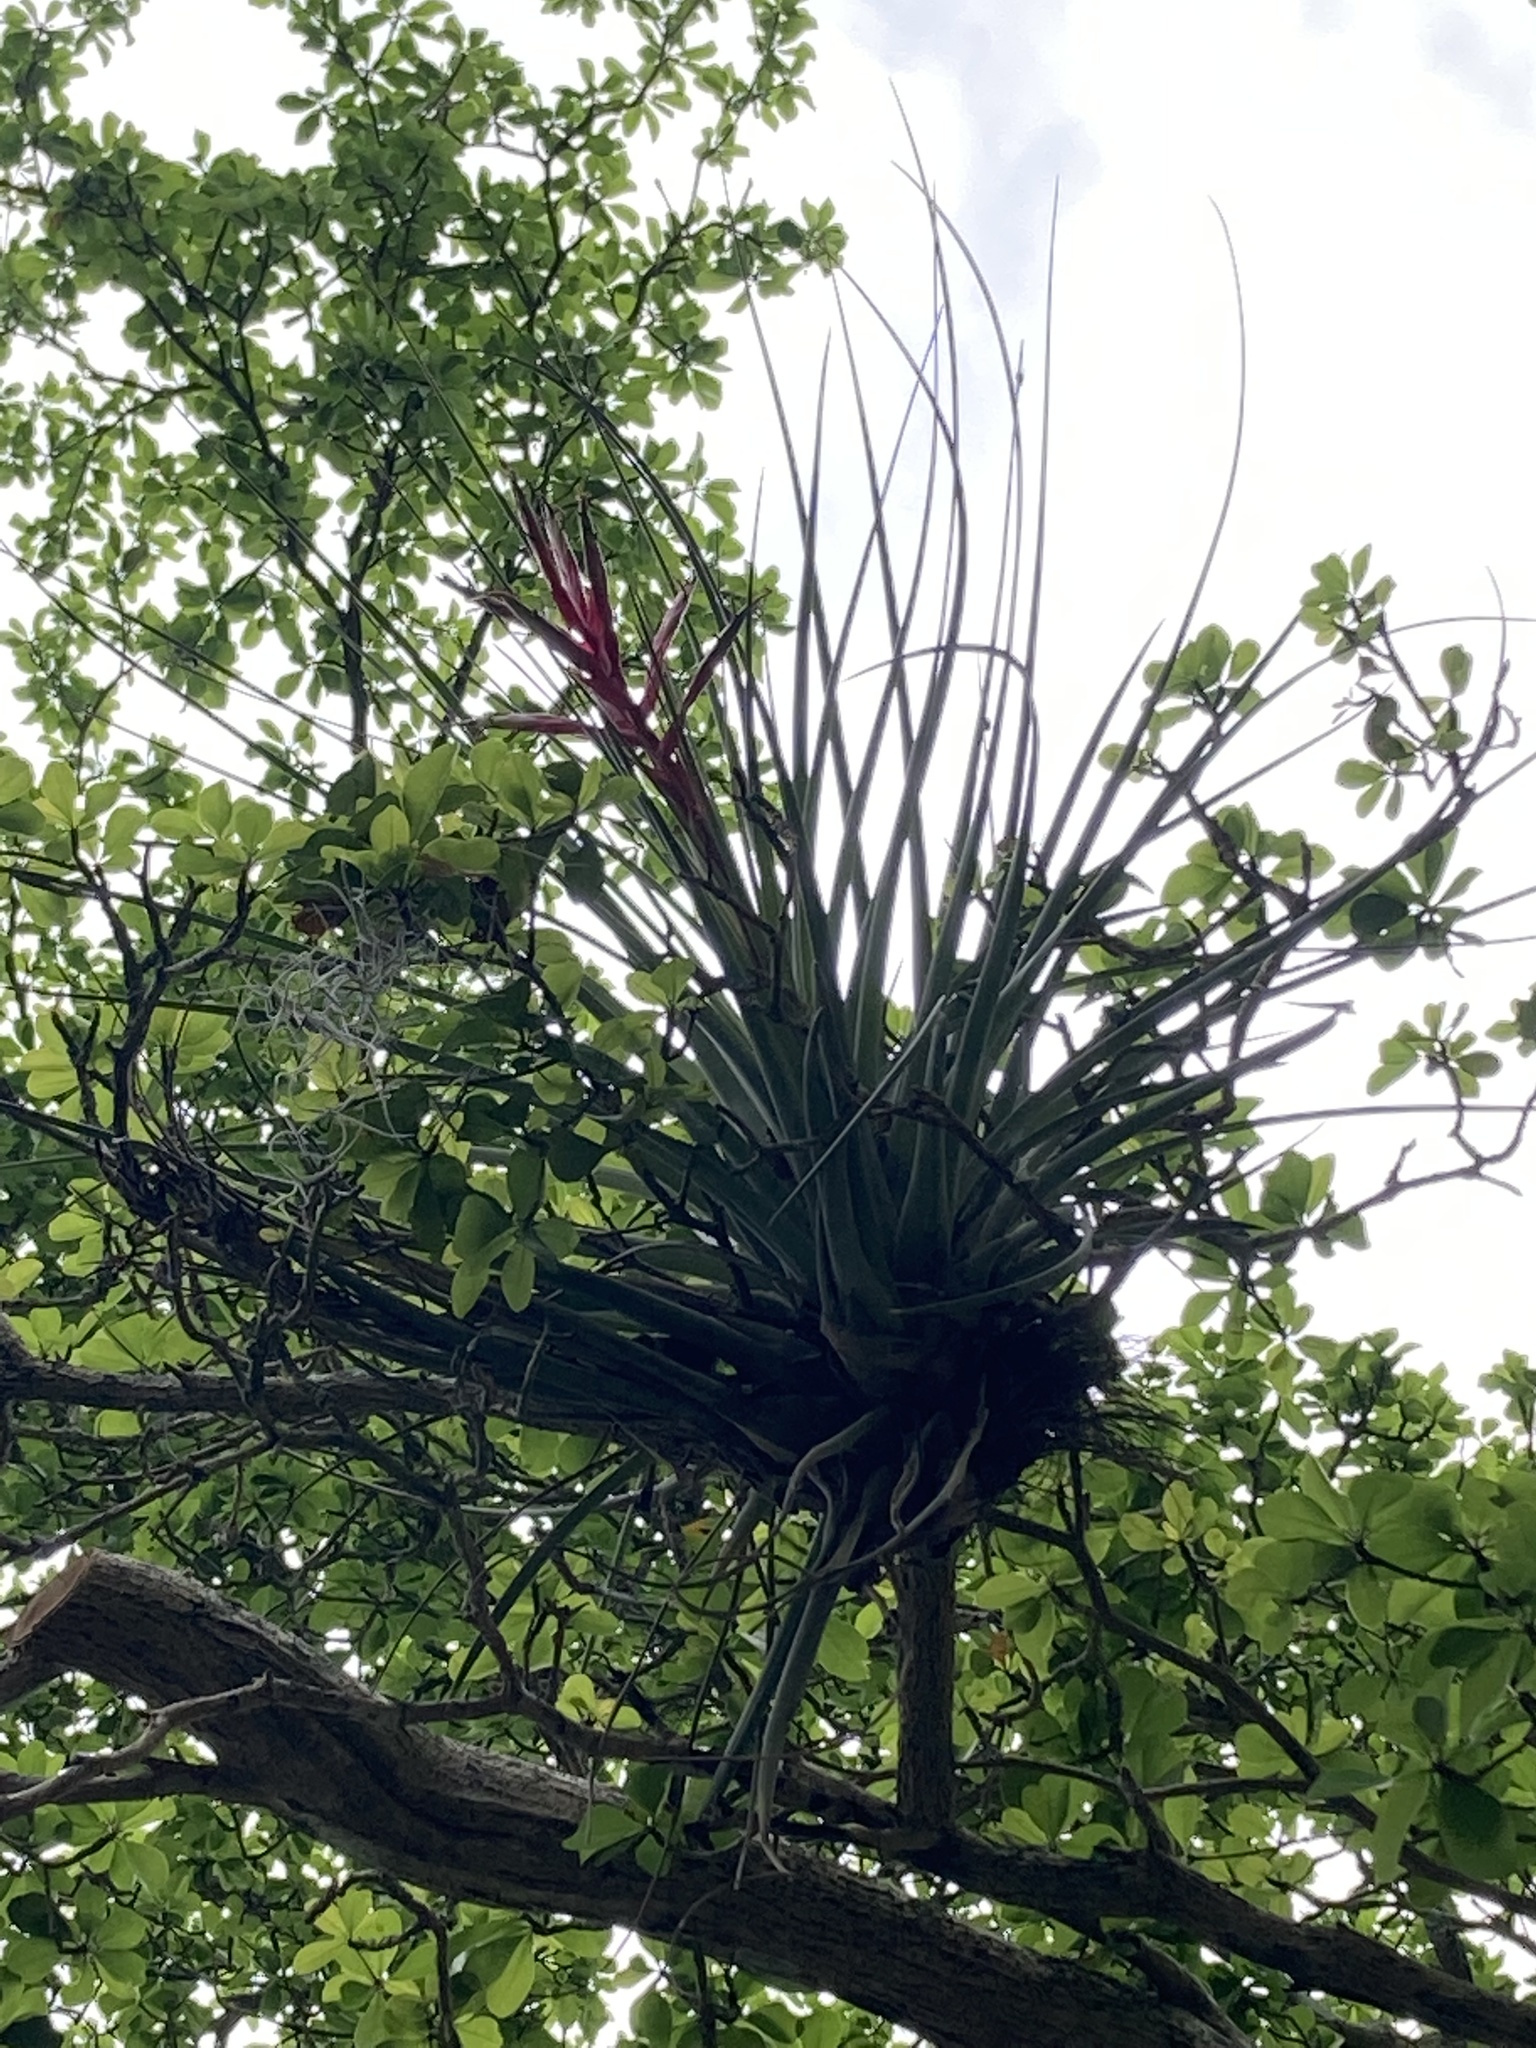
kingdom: Plantae
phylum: Tracheophyta
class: Liliopsida
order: Poales
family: Bromeliaceae
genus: Tillandsia
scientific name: Tillandsia fasciculata
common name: Giant airplant
